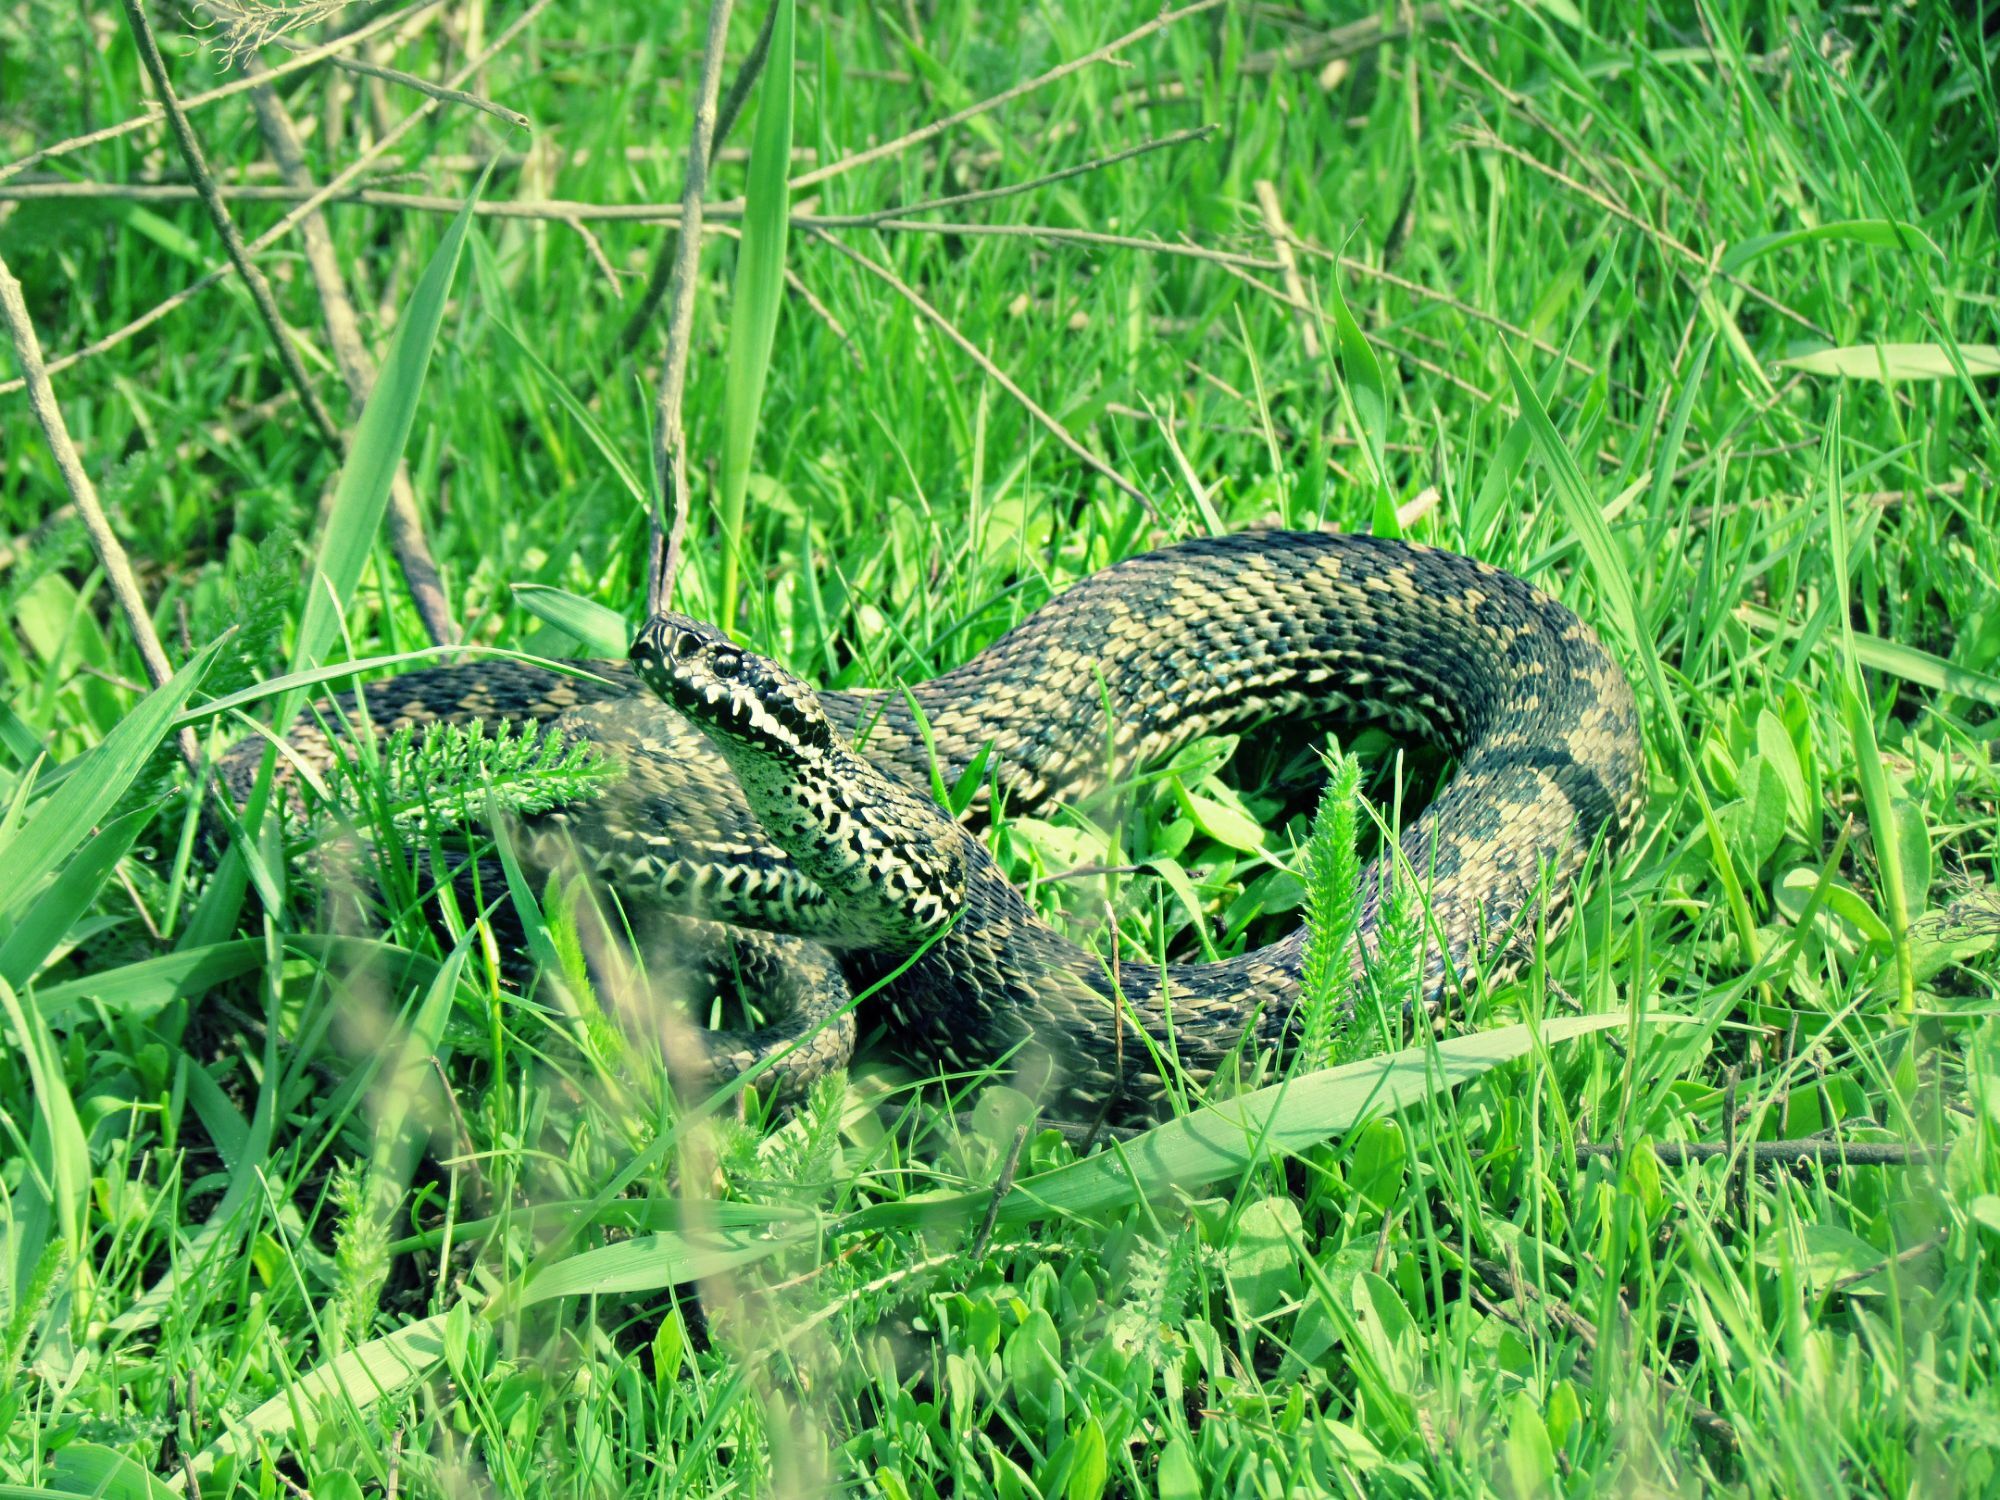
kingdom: Animalia
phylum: Chordata
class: Squamata
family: Viperidae
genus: Vipera
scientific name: Vipera renardi
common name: Eastern steppe viper
